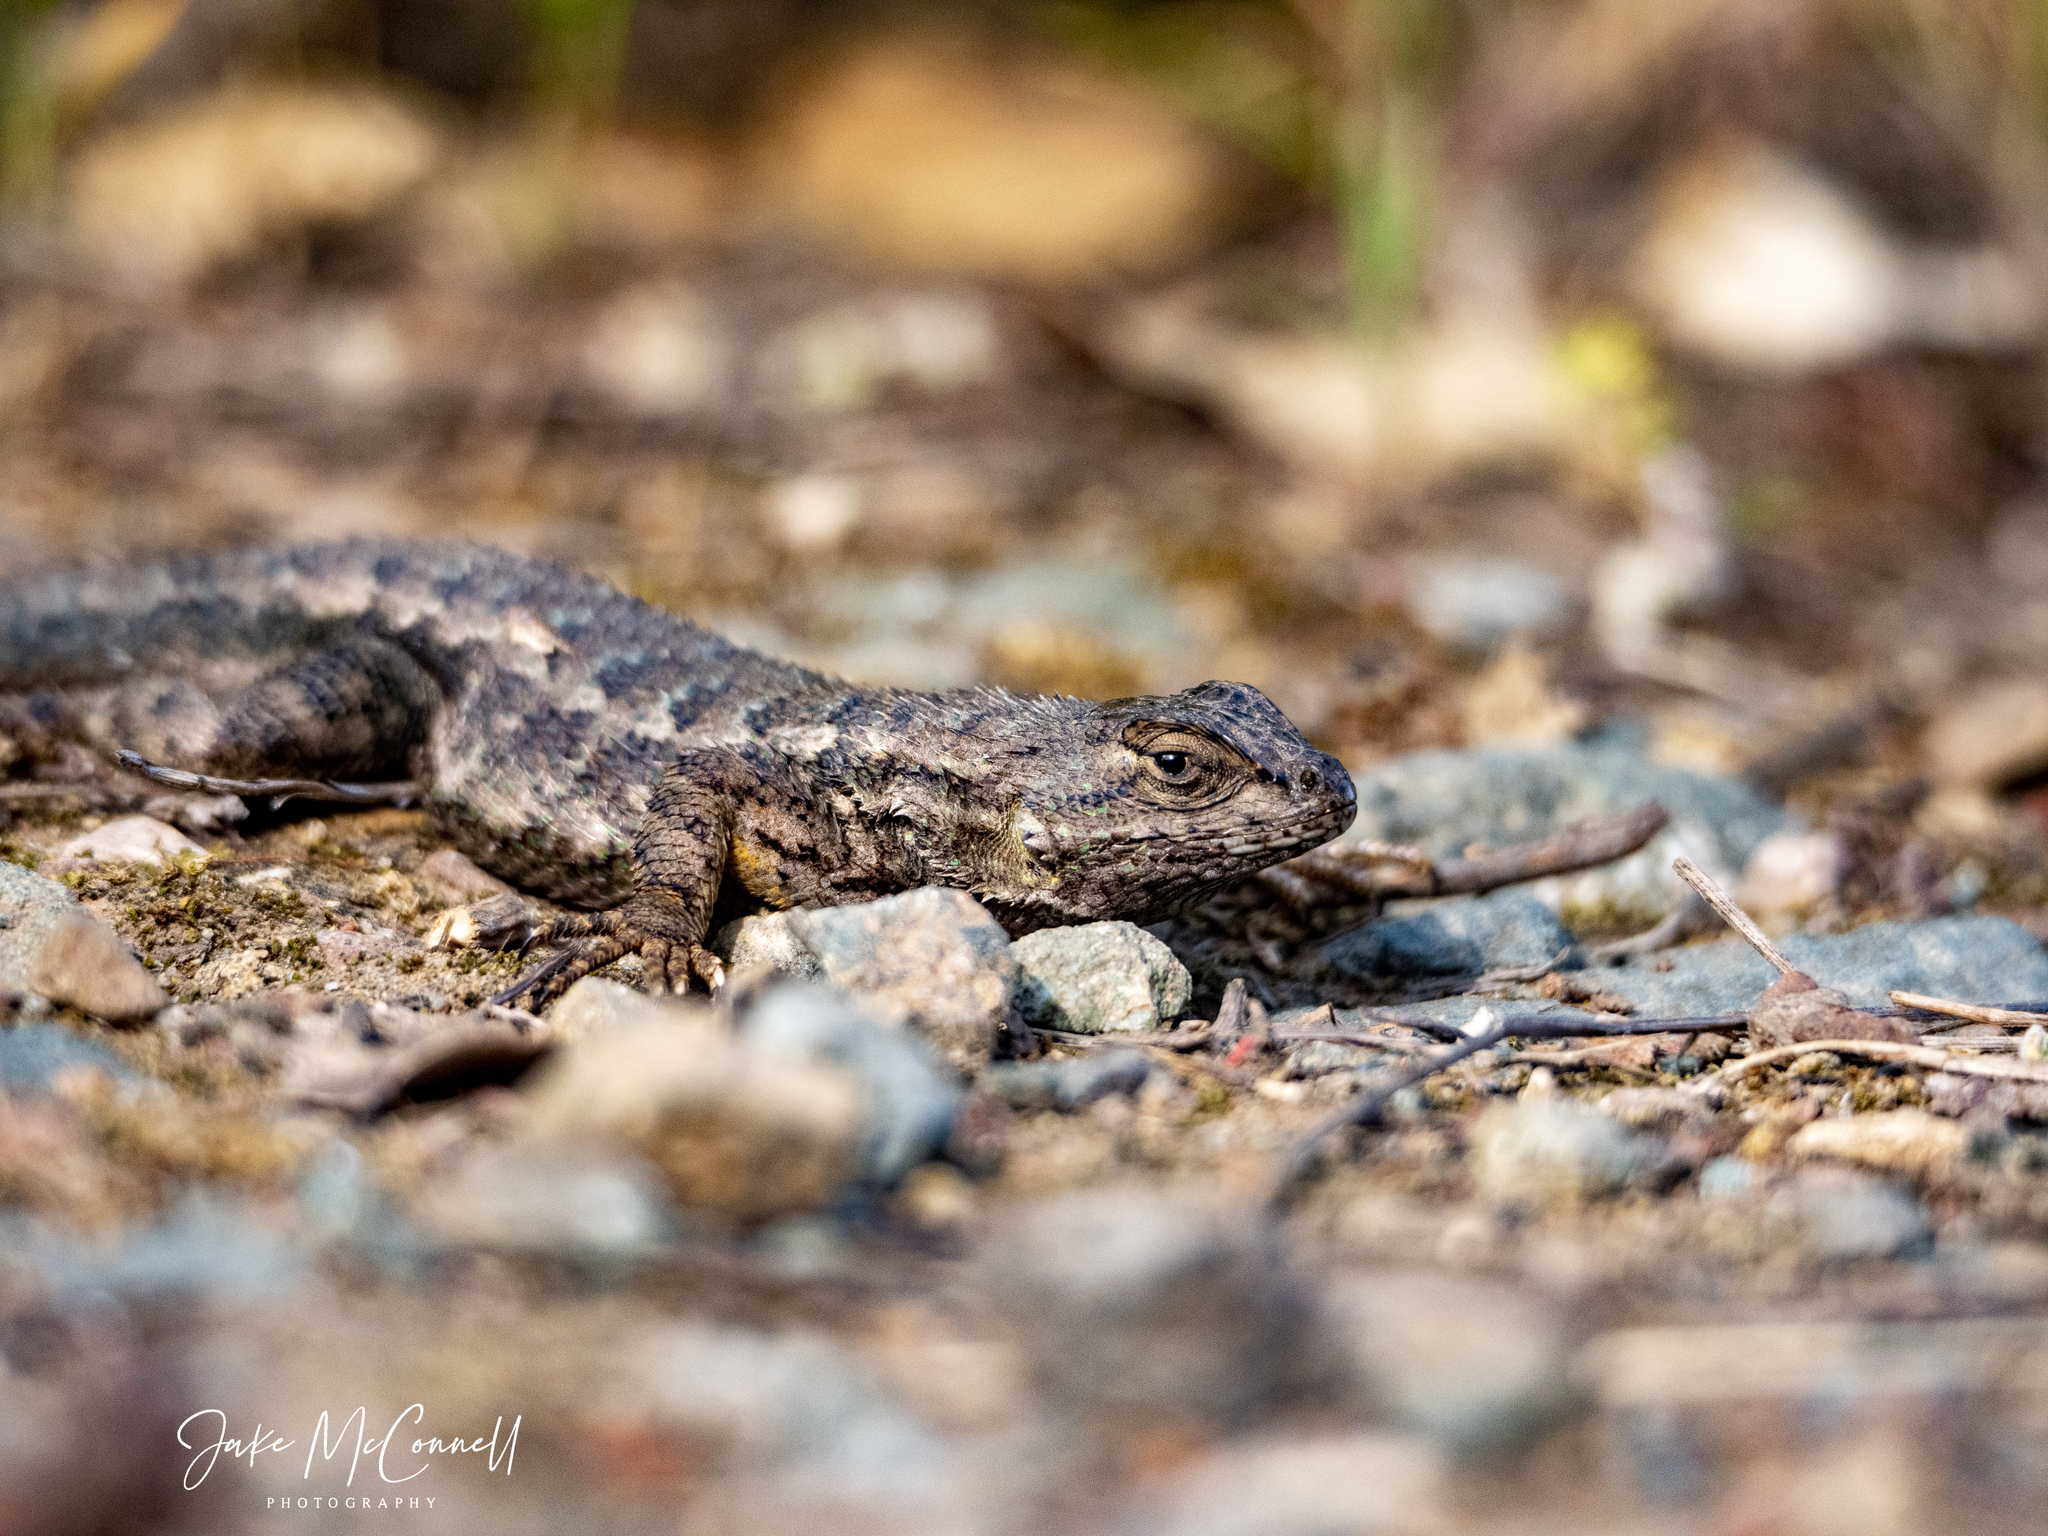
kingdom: Animalia
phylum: Chordata
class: Squamata
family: Phrynosomatidae
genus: Sceloporus
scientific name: Sceloporus occidentalis
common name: Western fence lizard
